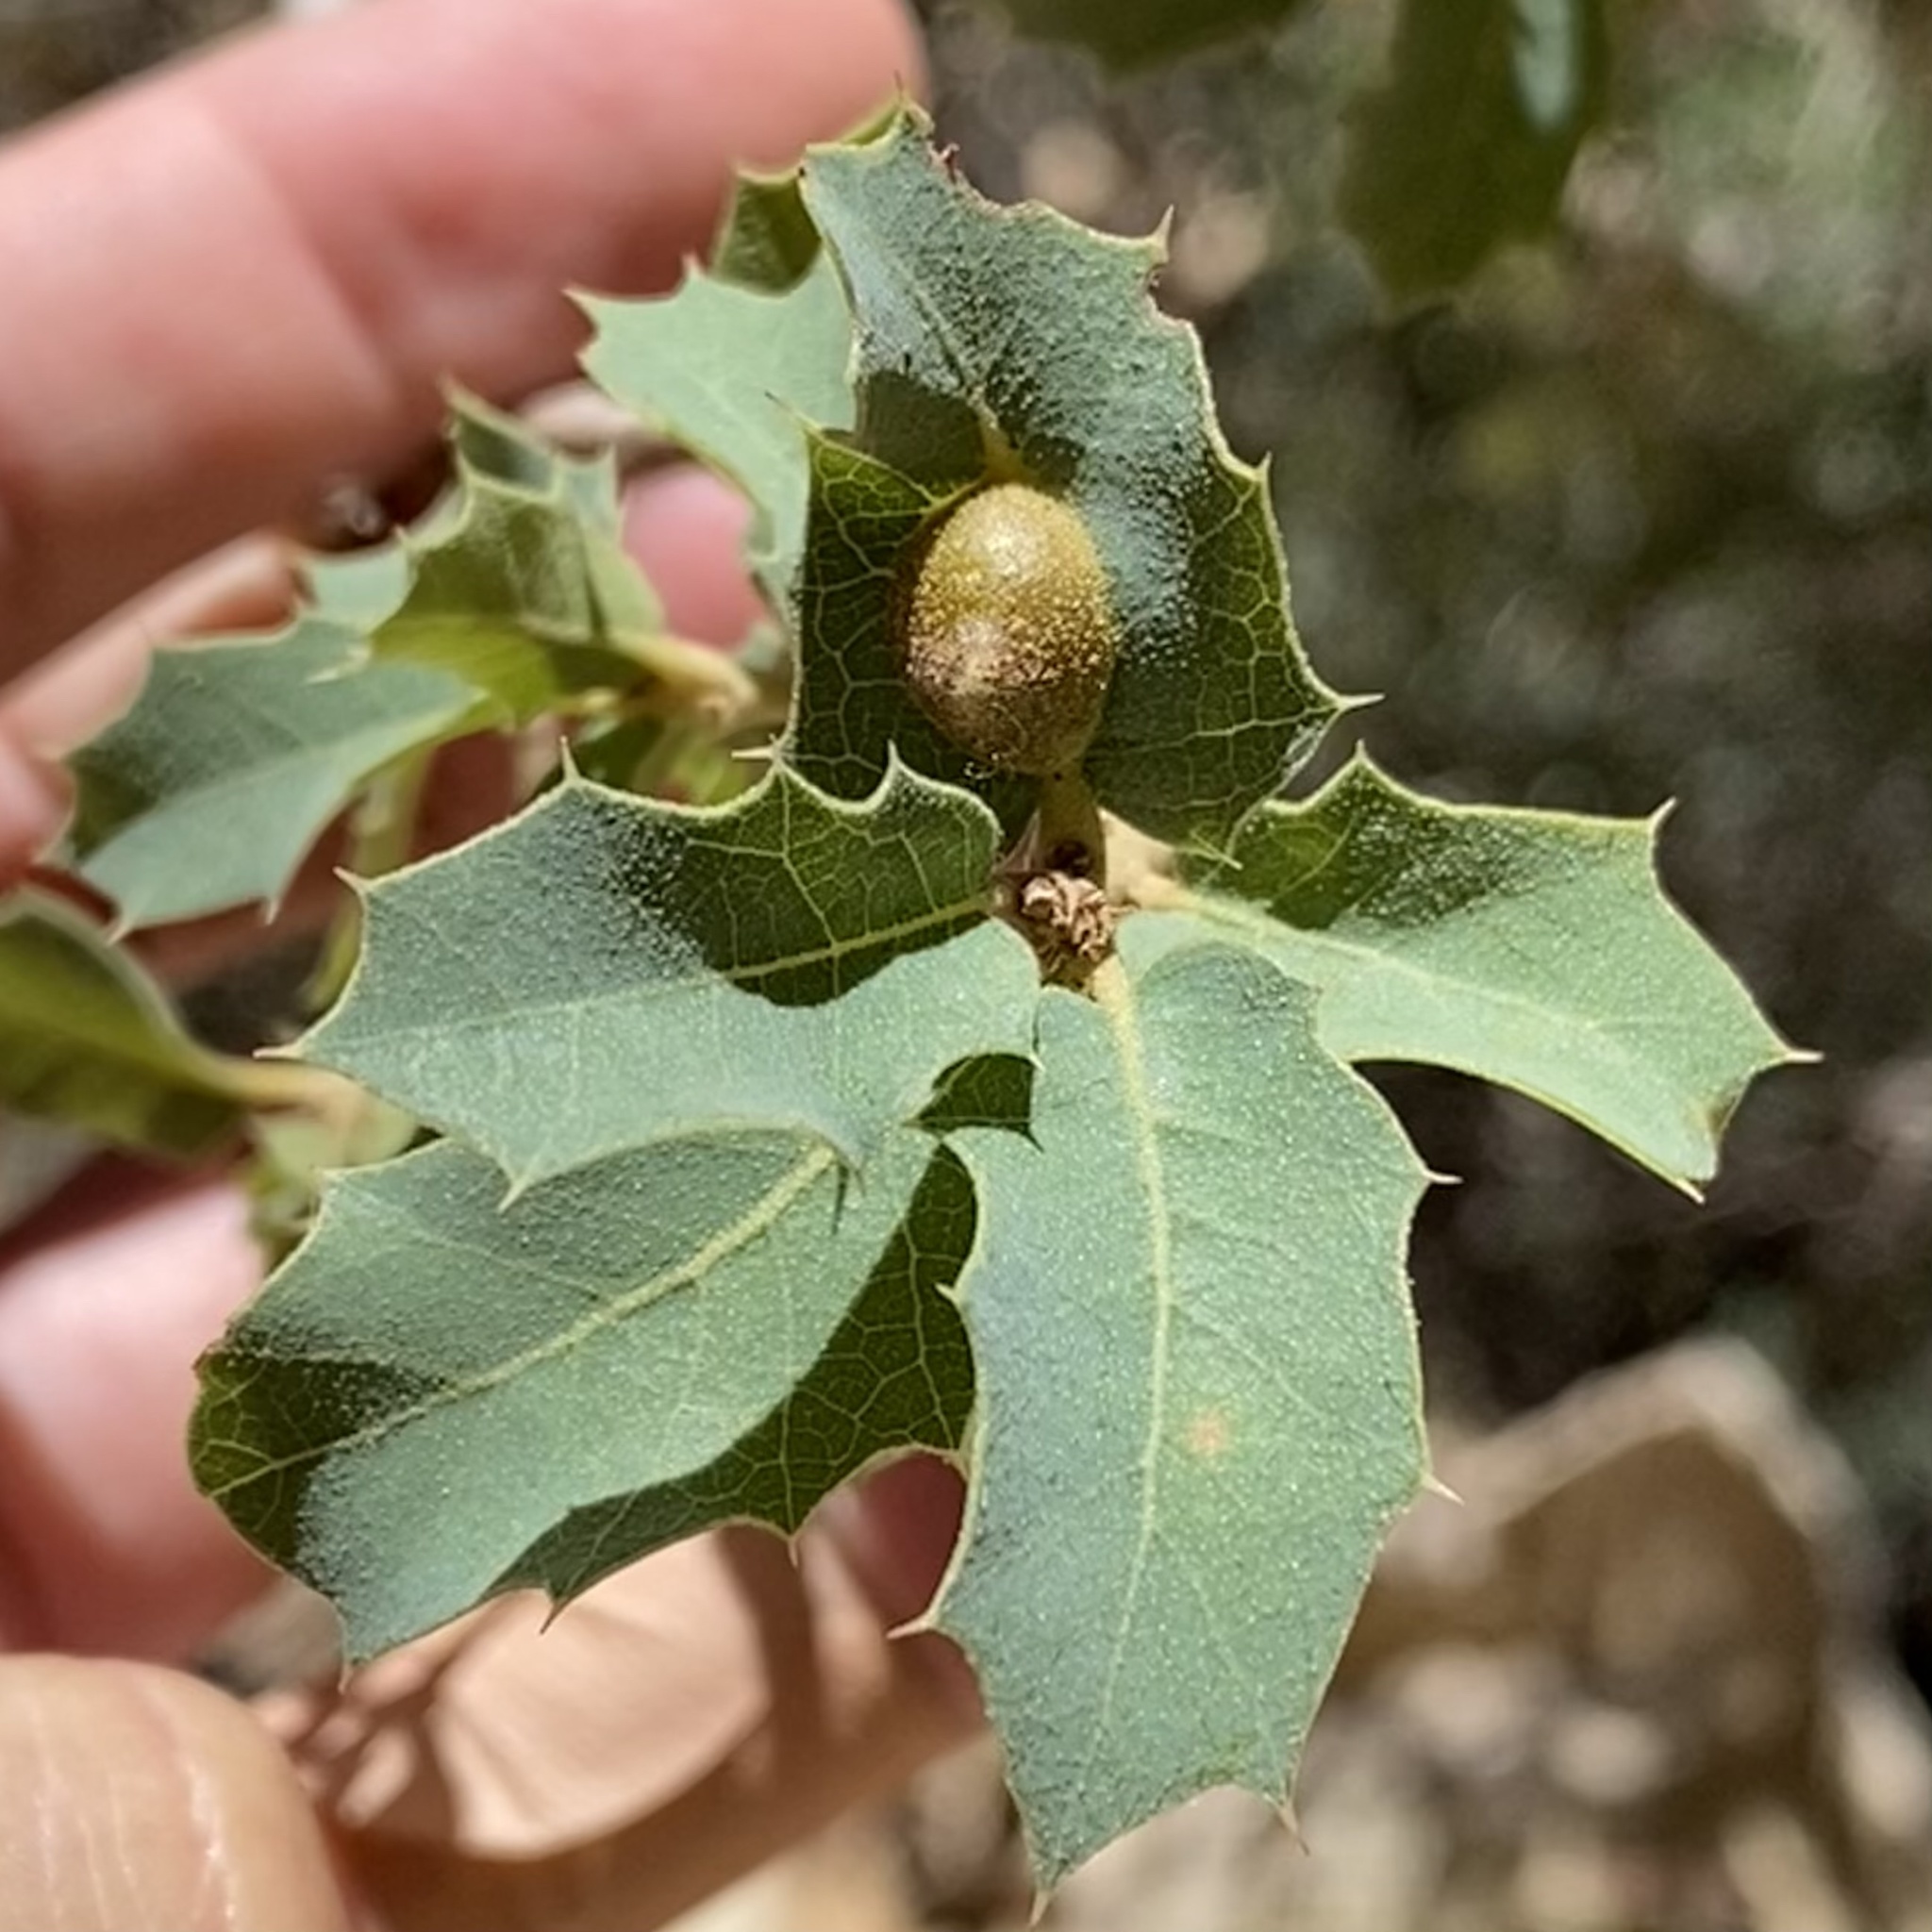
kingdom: Animalia
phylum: Arthropoda
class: Insecta
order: Hymenoptera
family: Cynipidae
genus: Andricus
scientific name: Andricus
